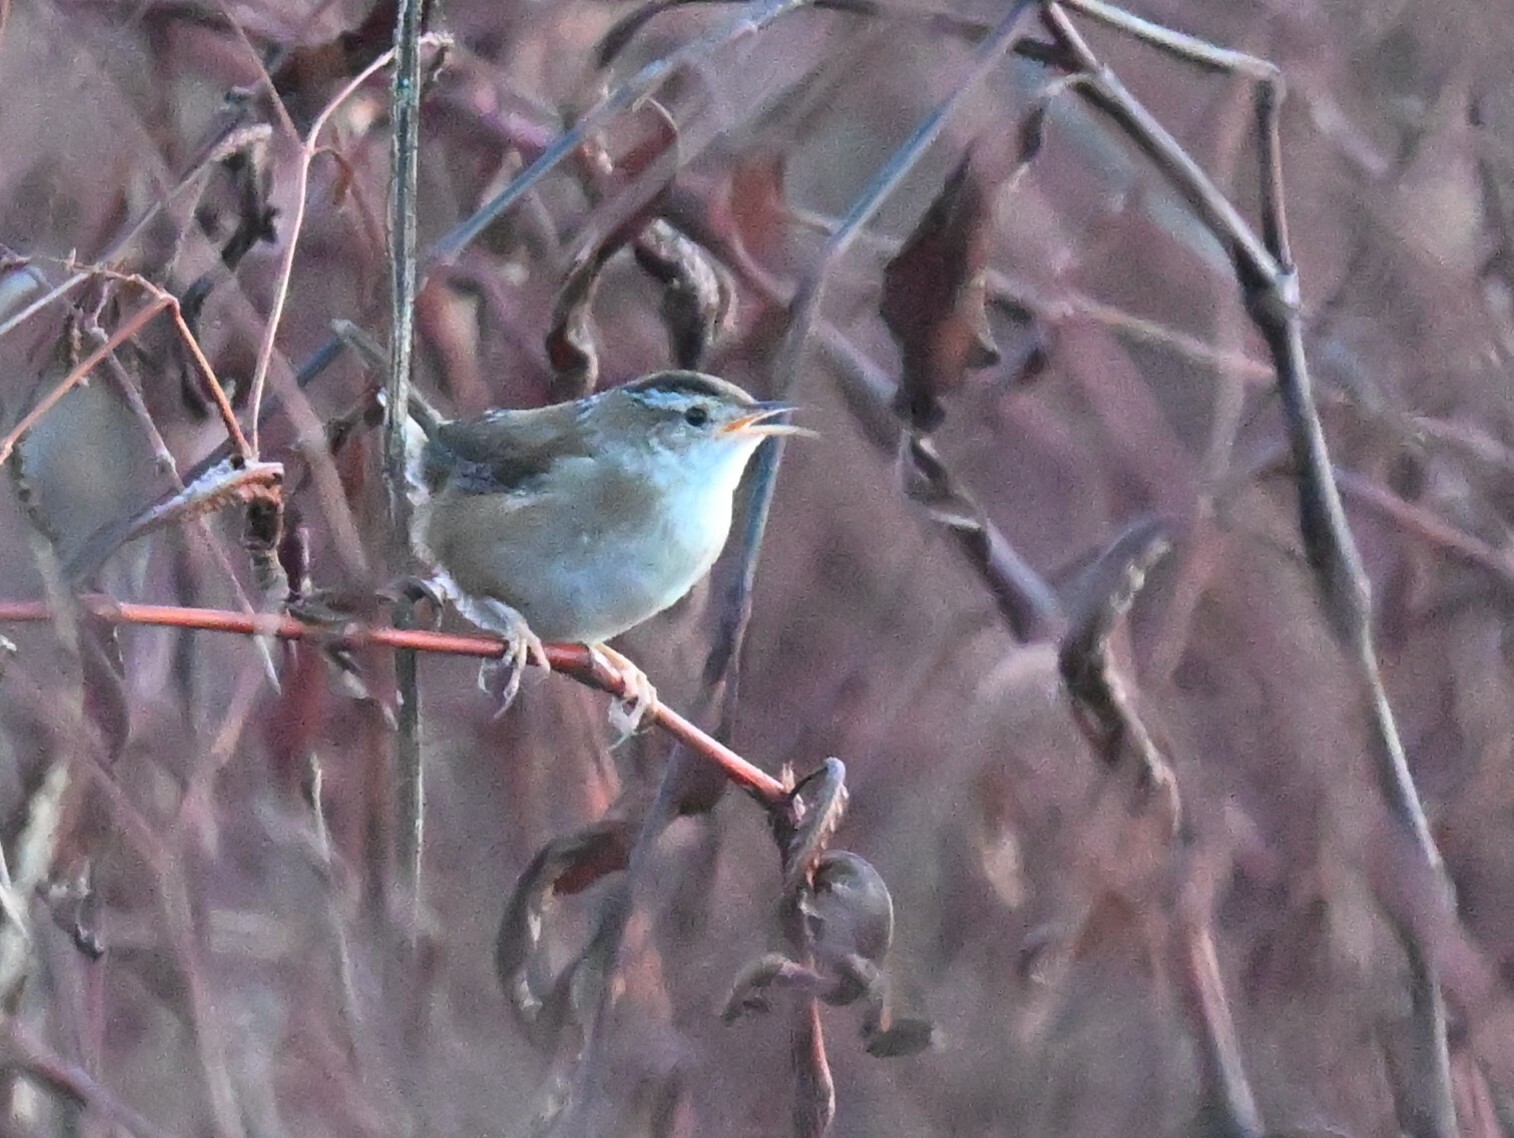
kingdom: Animalia
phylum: Chordata
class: Aves
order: Passeriformes
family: Troglodytidae
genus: Cistothorus
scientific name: Cistothorus palustris
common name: Marsh wren
